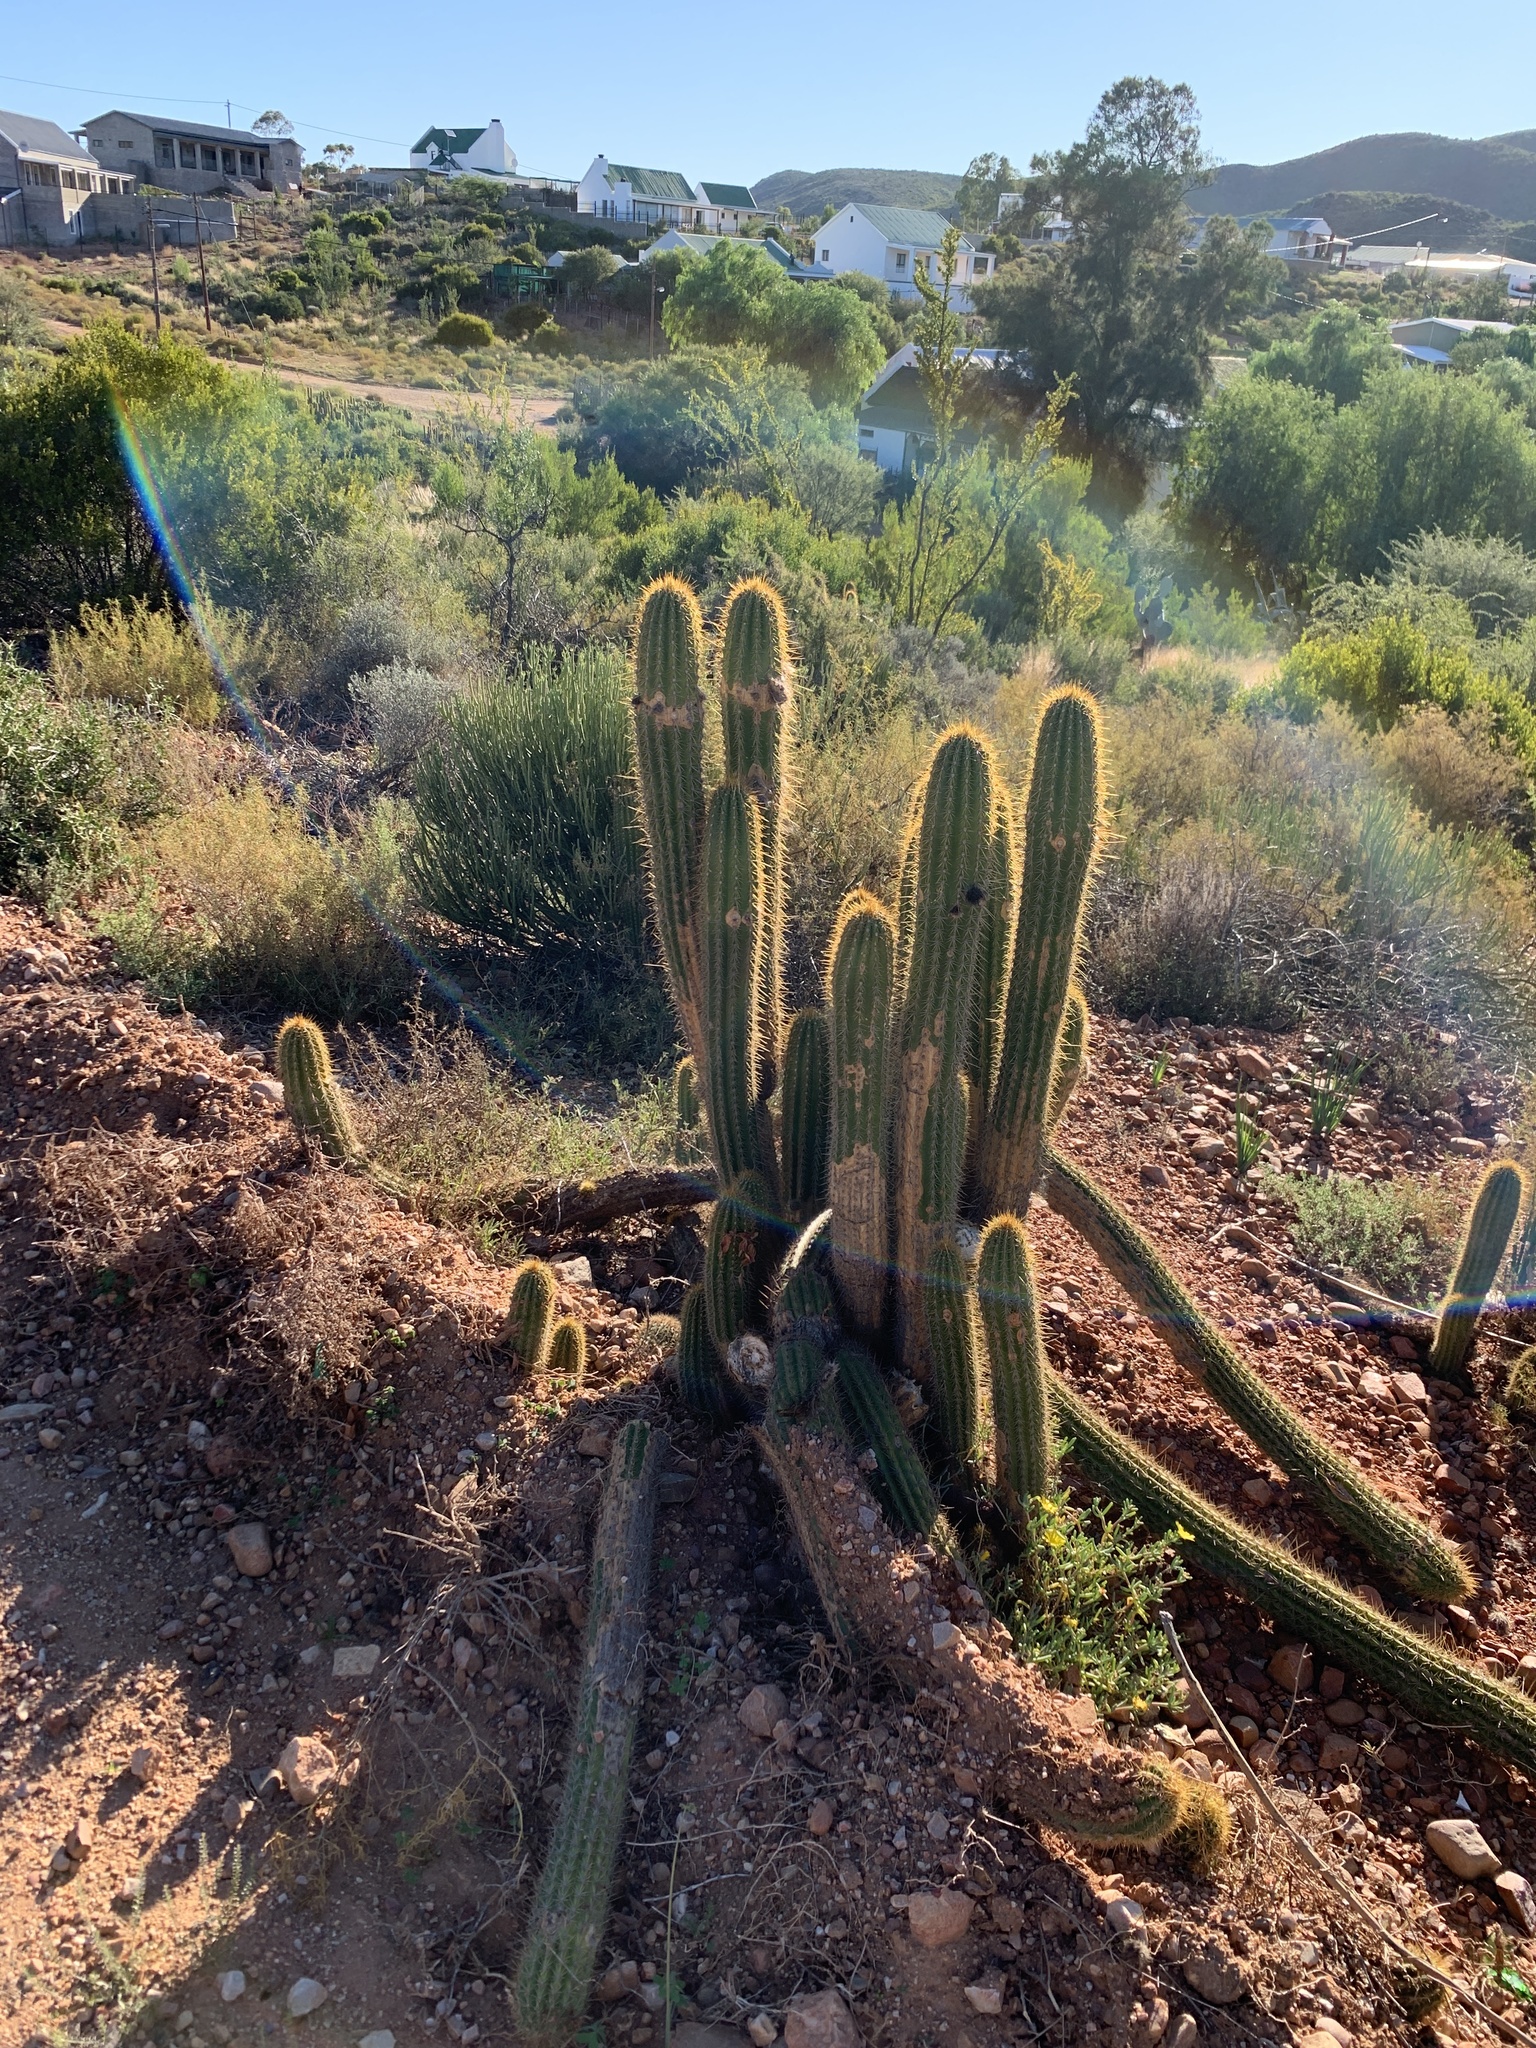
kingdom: Plantae
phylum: Tracheophyta
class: Magnoliopsida
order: Caryophyllales
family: Cactaceae
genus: Soehrensia
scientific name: Soehrensia spachiana
